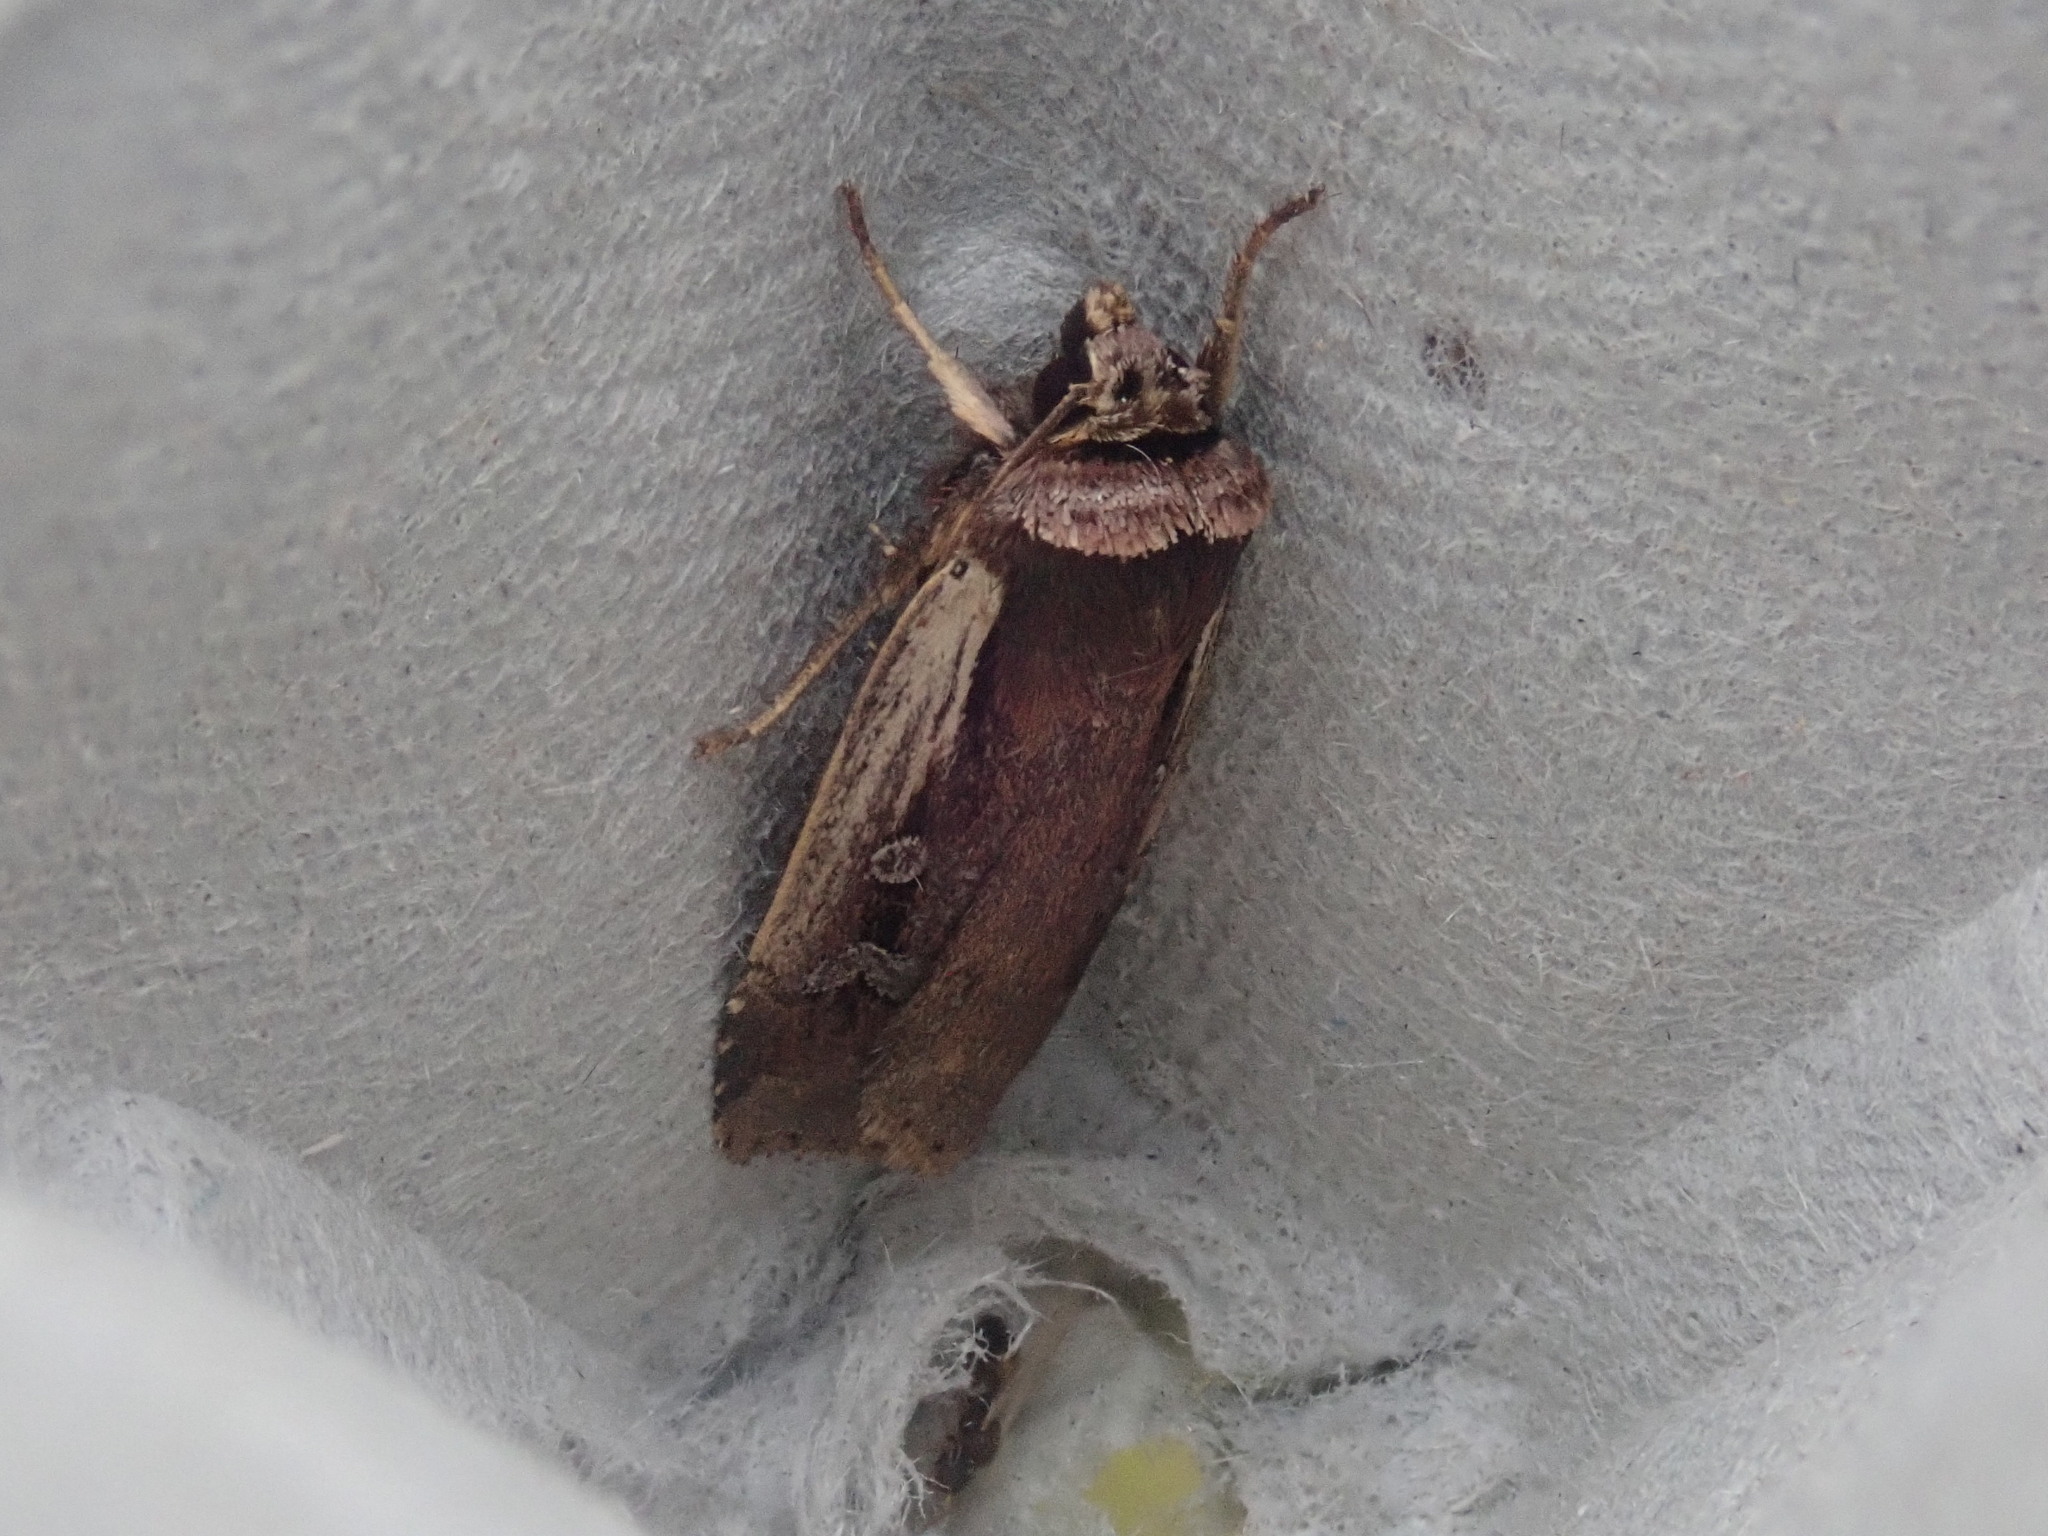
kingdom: Animalia
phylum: Arthropoda
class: Insecta
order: Lepidoptera
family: Noctuidae
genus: Ochropleura
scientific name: Ochropleura implecta
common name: Flame-shouldered dart
